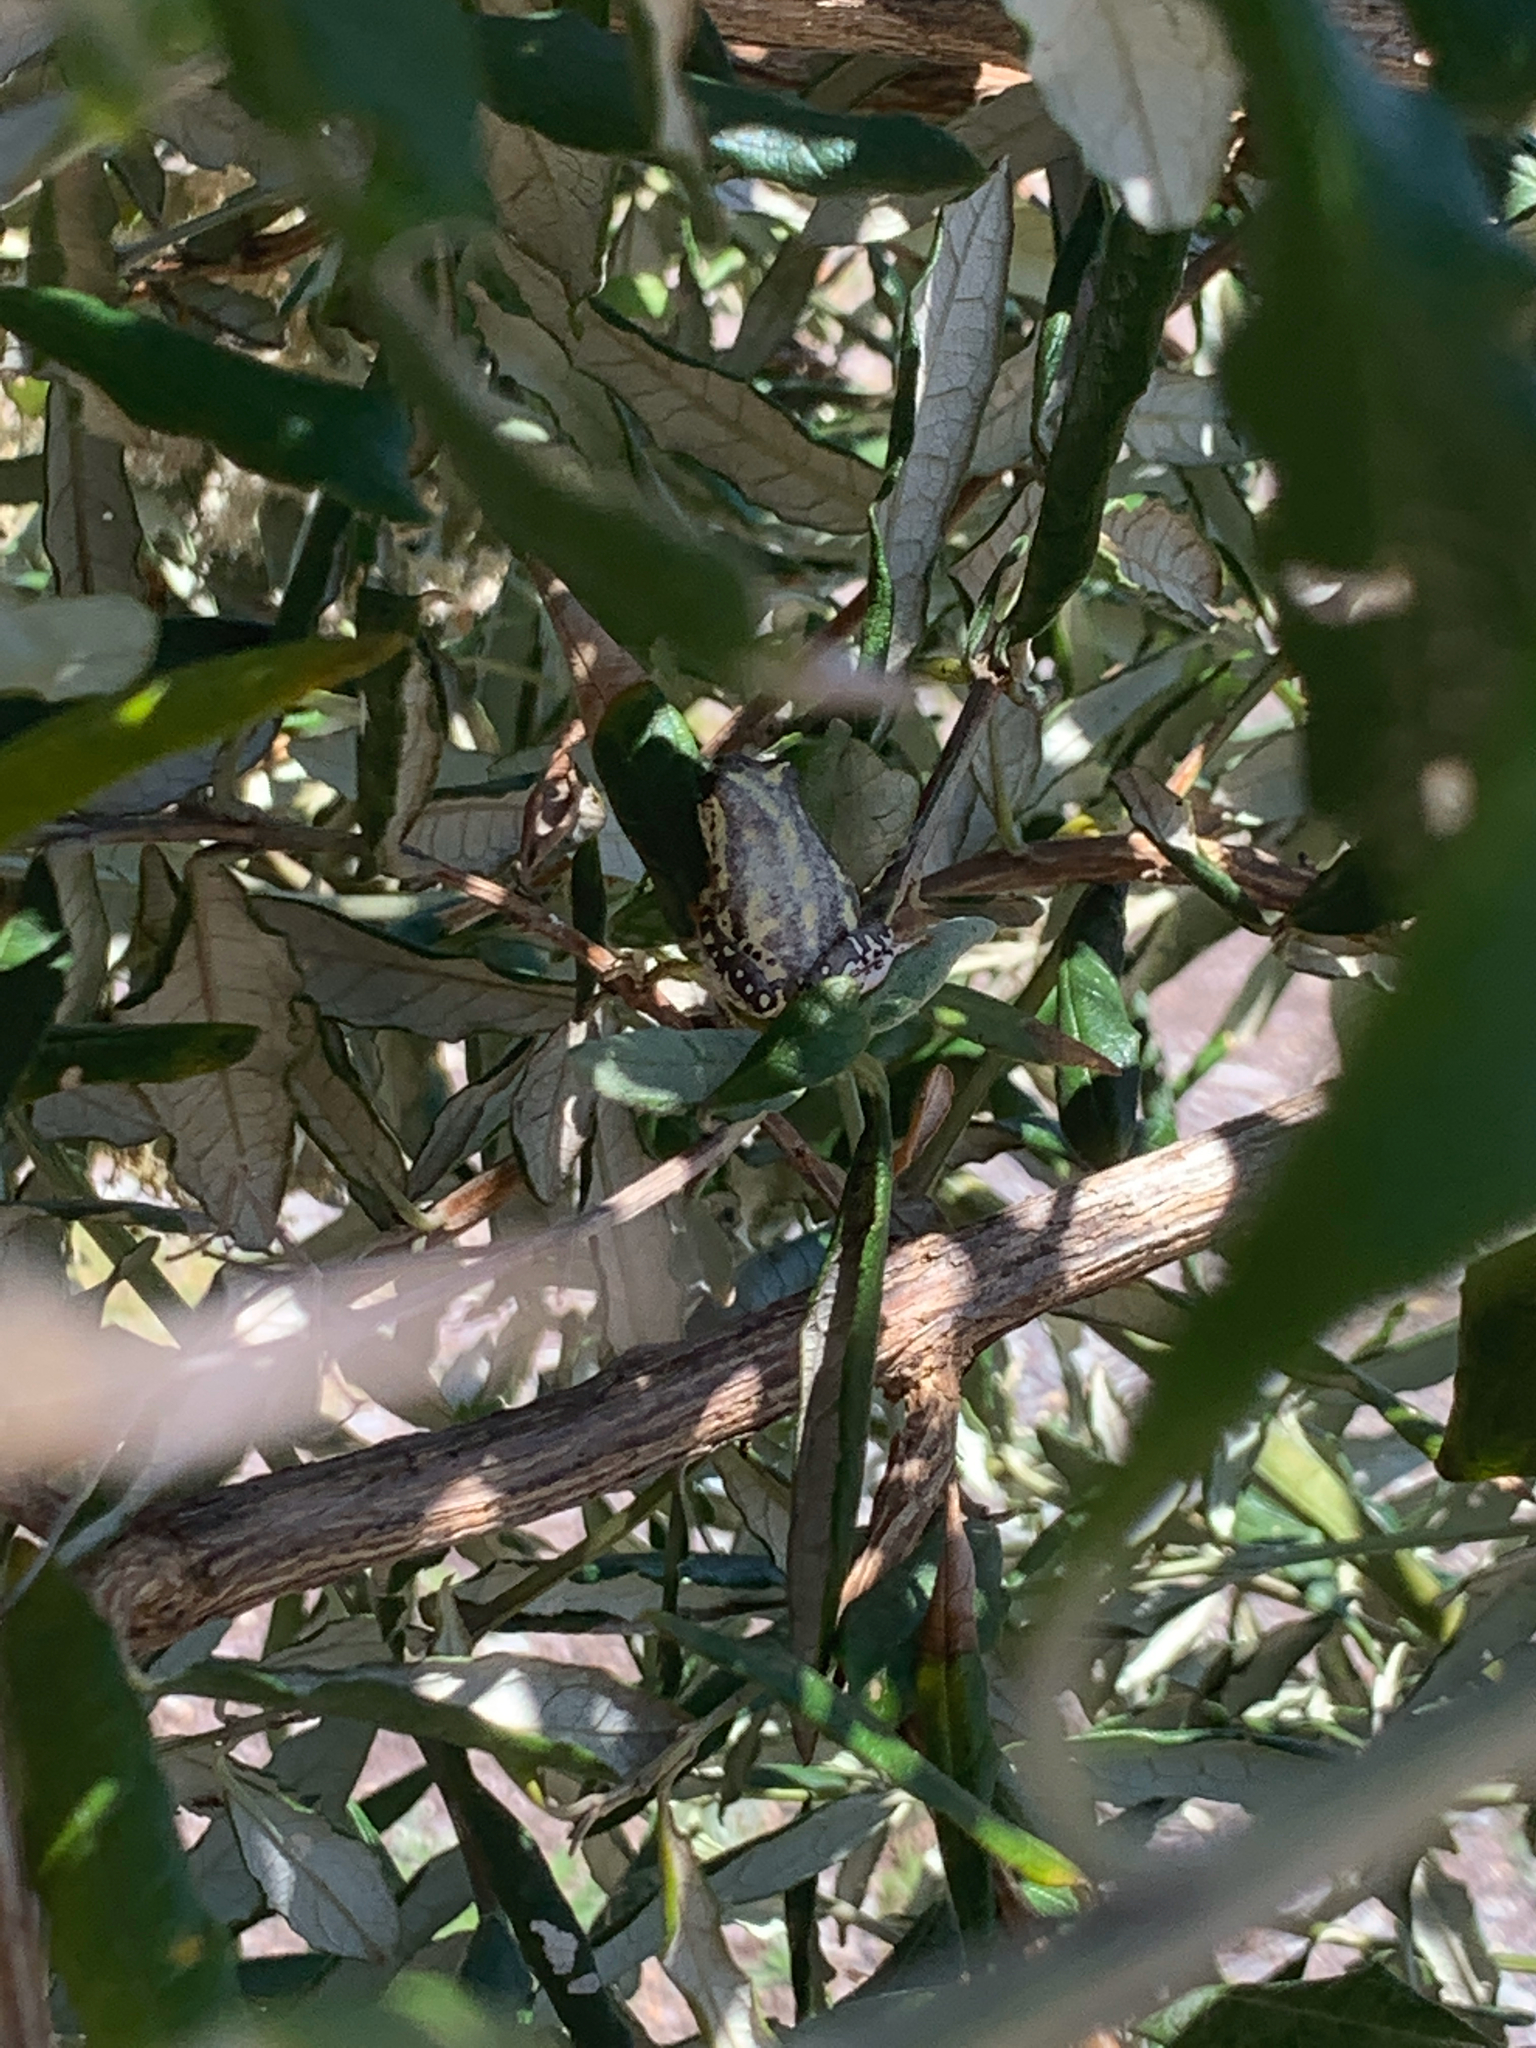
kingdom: Animalia
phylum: Chordata
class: Amphibia
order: Anura
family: Hyperoliidae
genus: Hyperolius
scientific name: Hyperolius marmoratus
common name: Painted reed frog
